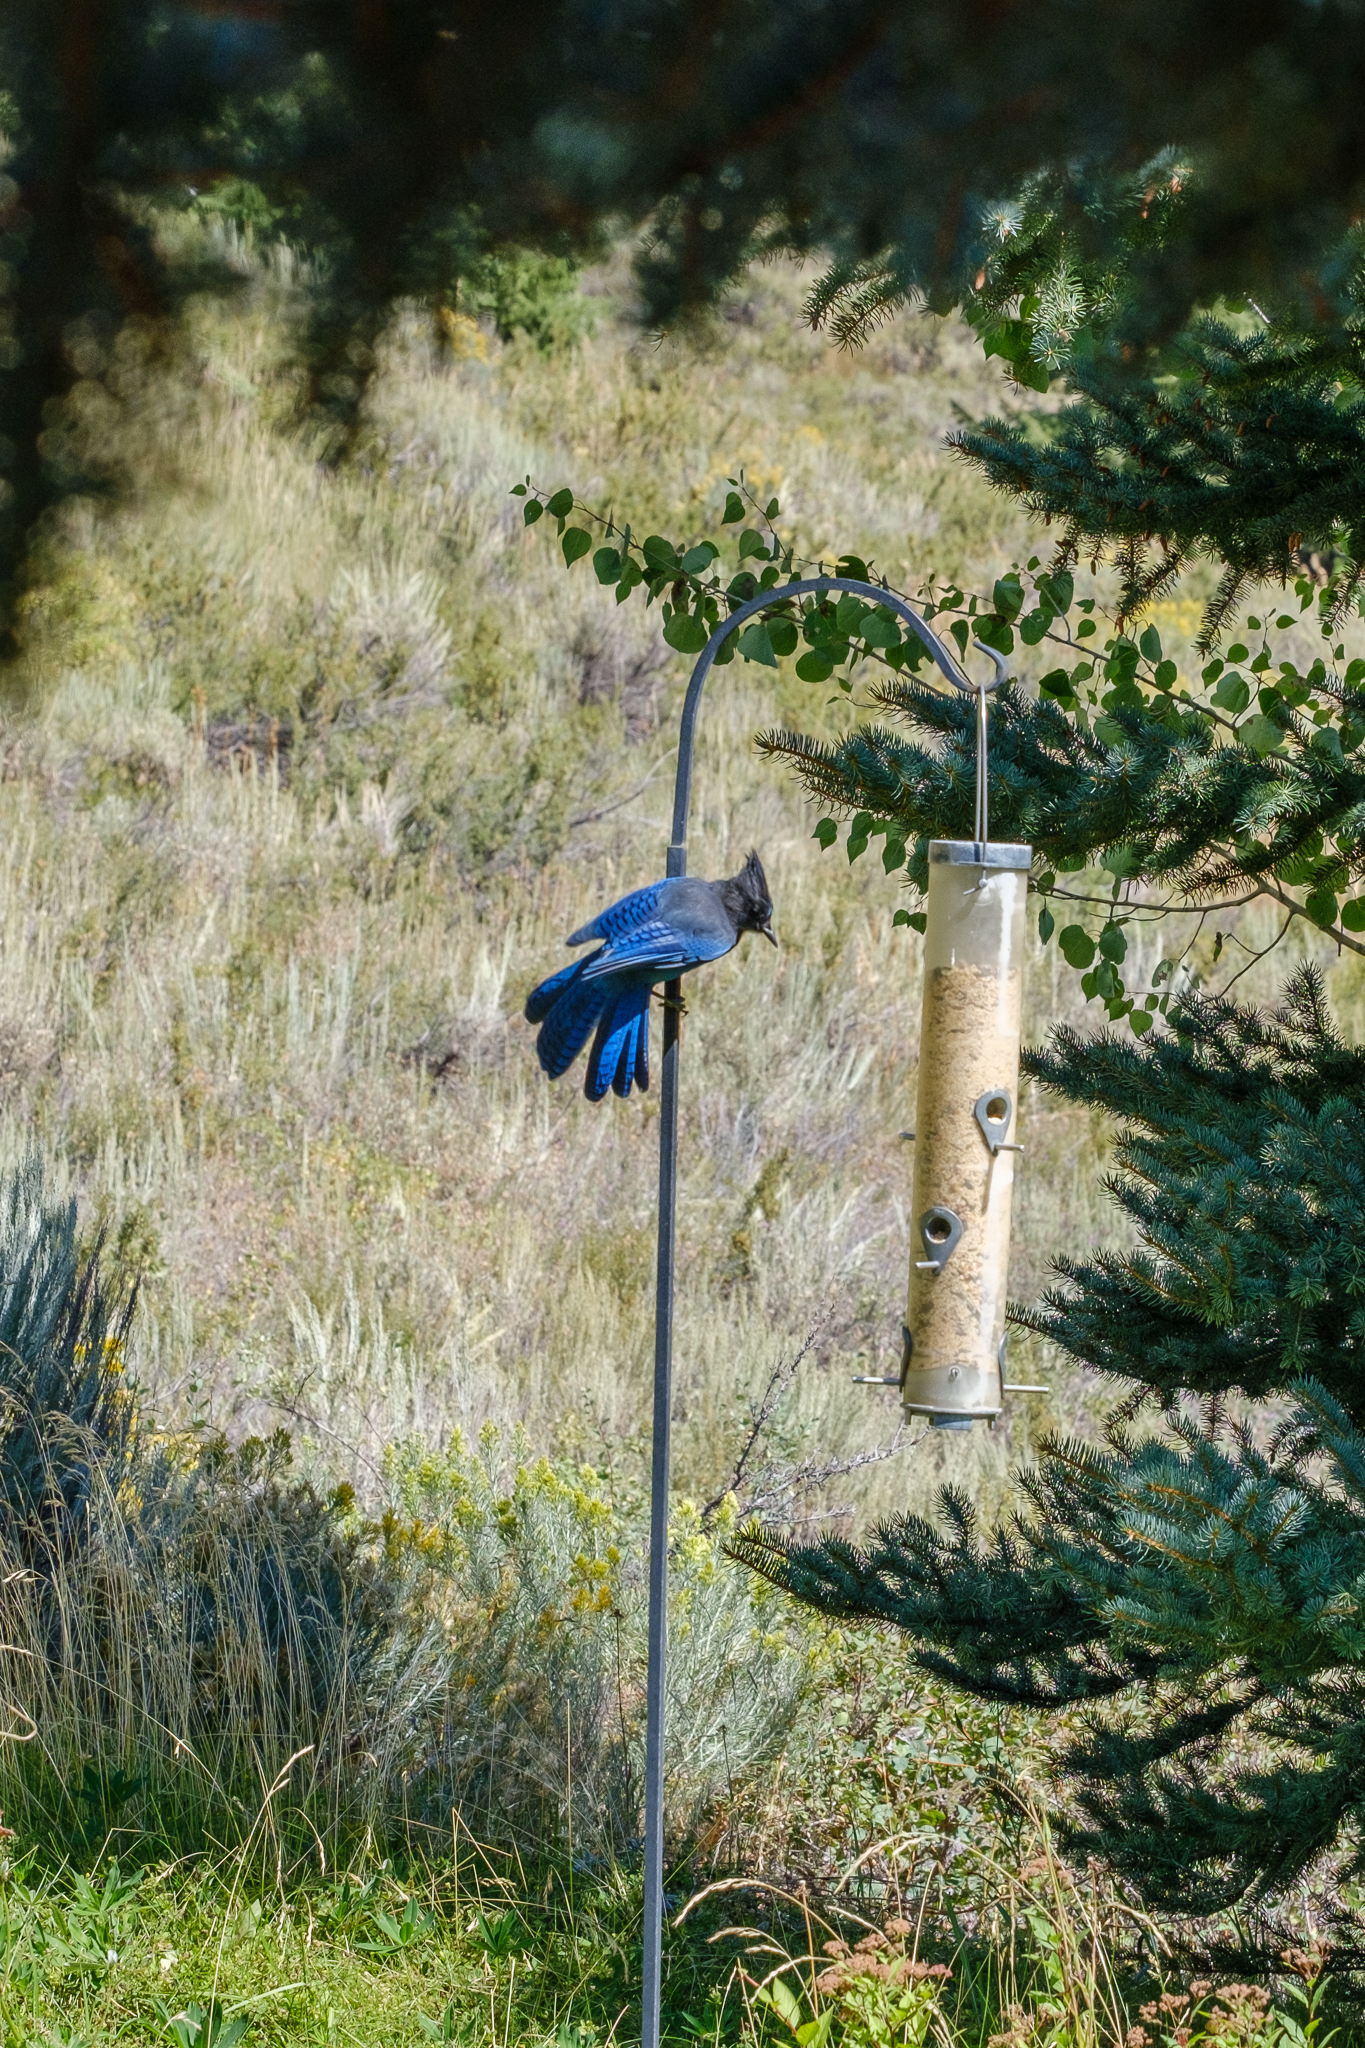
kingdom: Animalia
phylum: Chordata
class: Aves
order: Passeriformes
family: Corvidae
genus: Cyanocitta
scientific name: Cyanocitta stelleri
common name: Steller's jay
